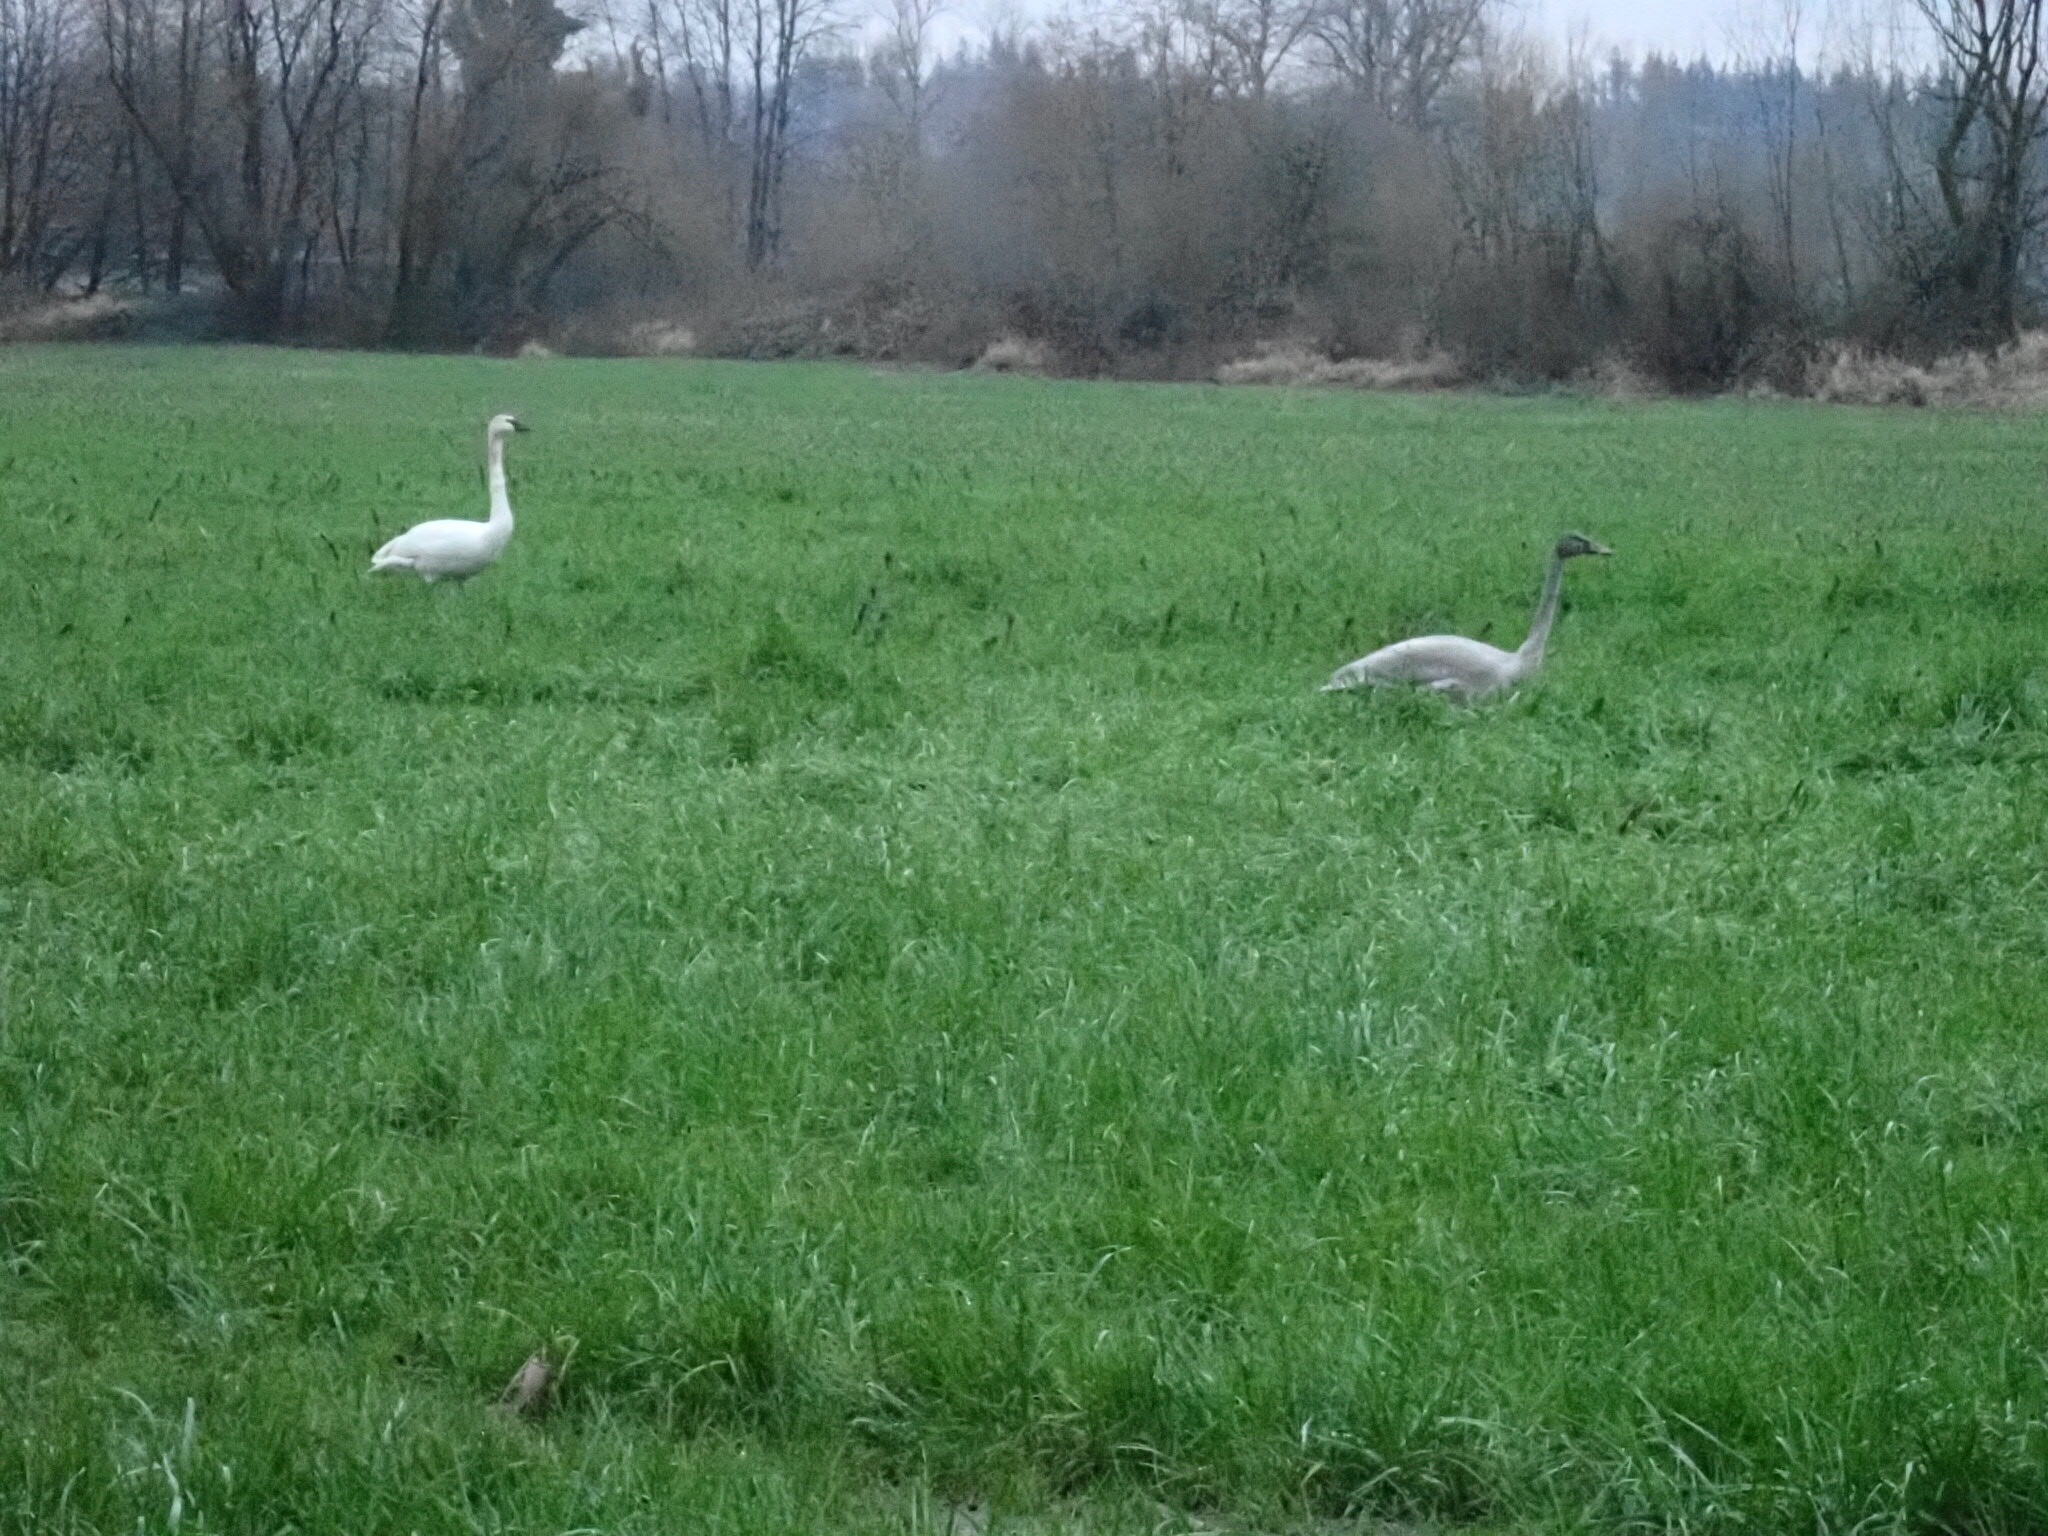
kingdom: Animalia
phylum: Chordata
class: Aves
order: Anseriformes
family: Anatidae
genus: Cygnus
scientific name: Cygnus columbianus
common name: Tundra swan
